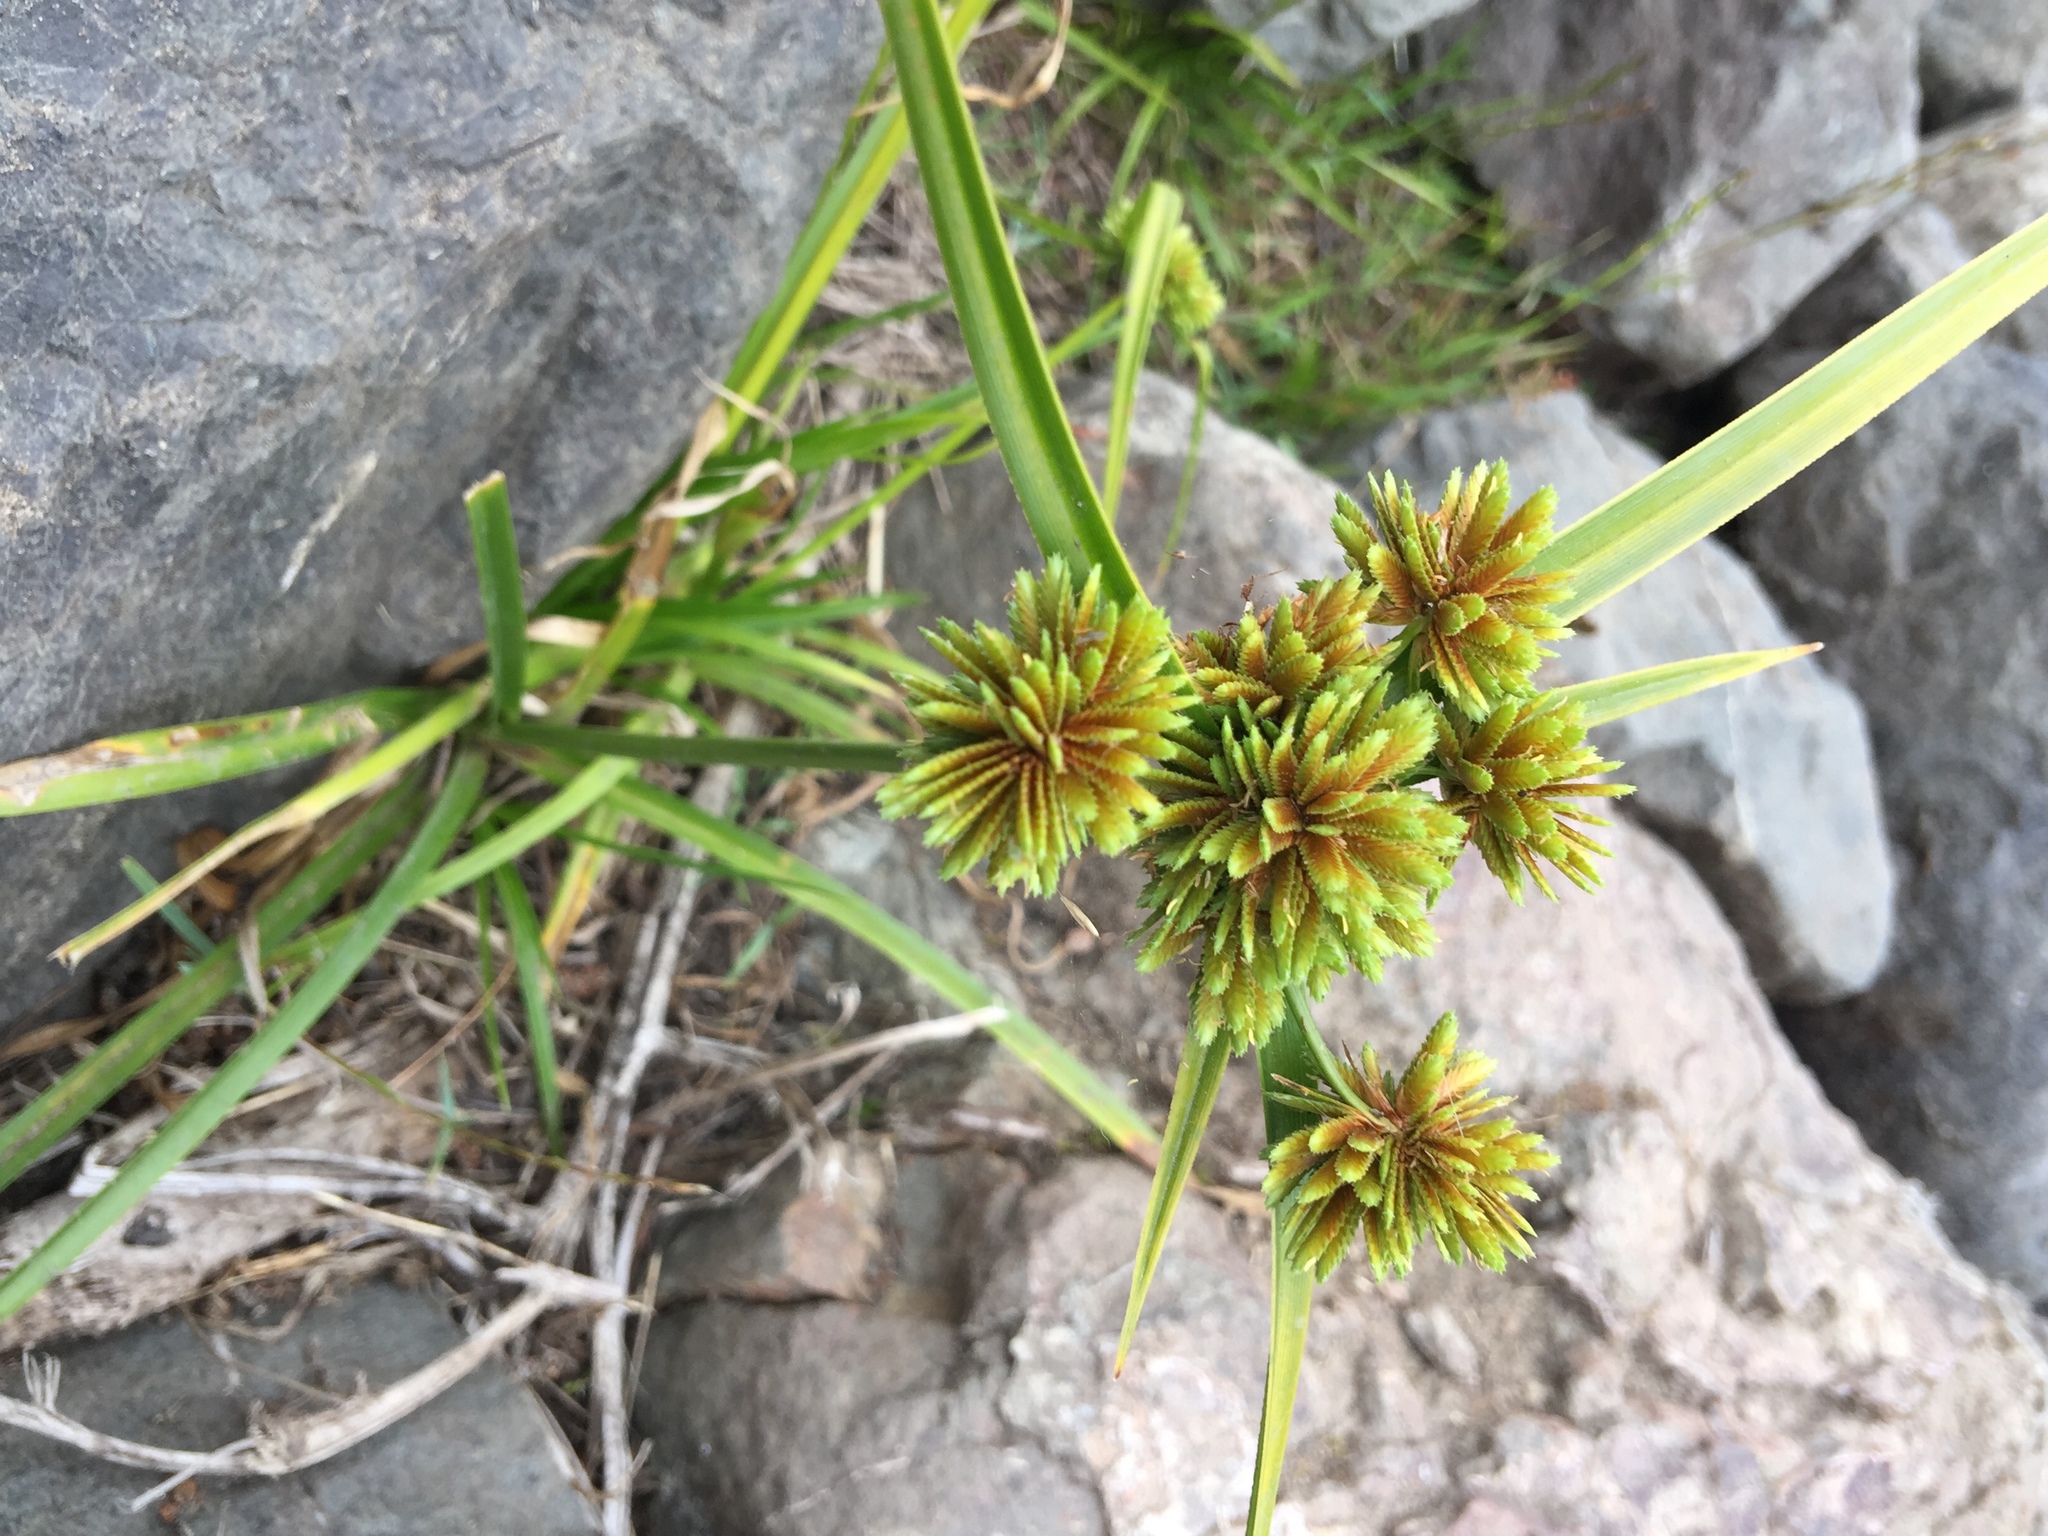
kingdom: Plantae
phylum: Tracheophyta
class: Liliopsida
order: Poales
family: Cyperaceae
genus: Cyperus
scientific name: Cyperus eragrostis
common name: Tall flatsedge
